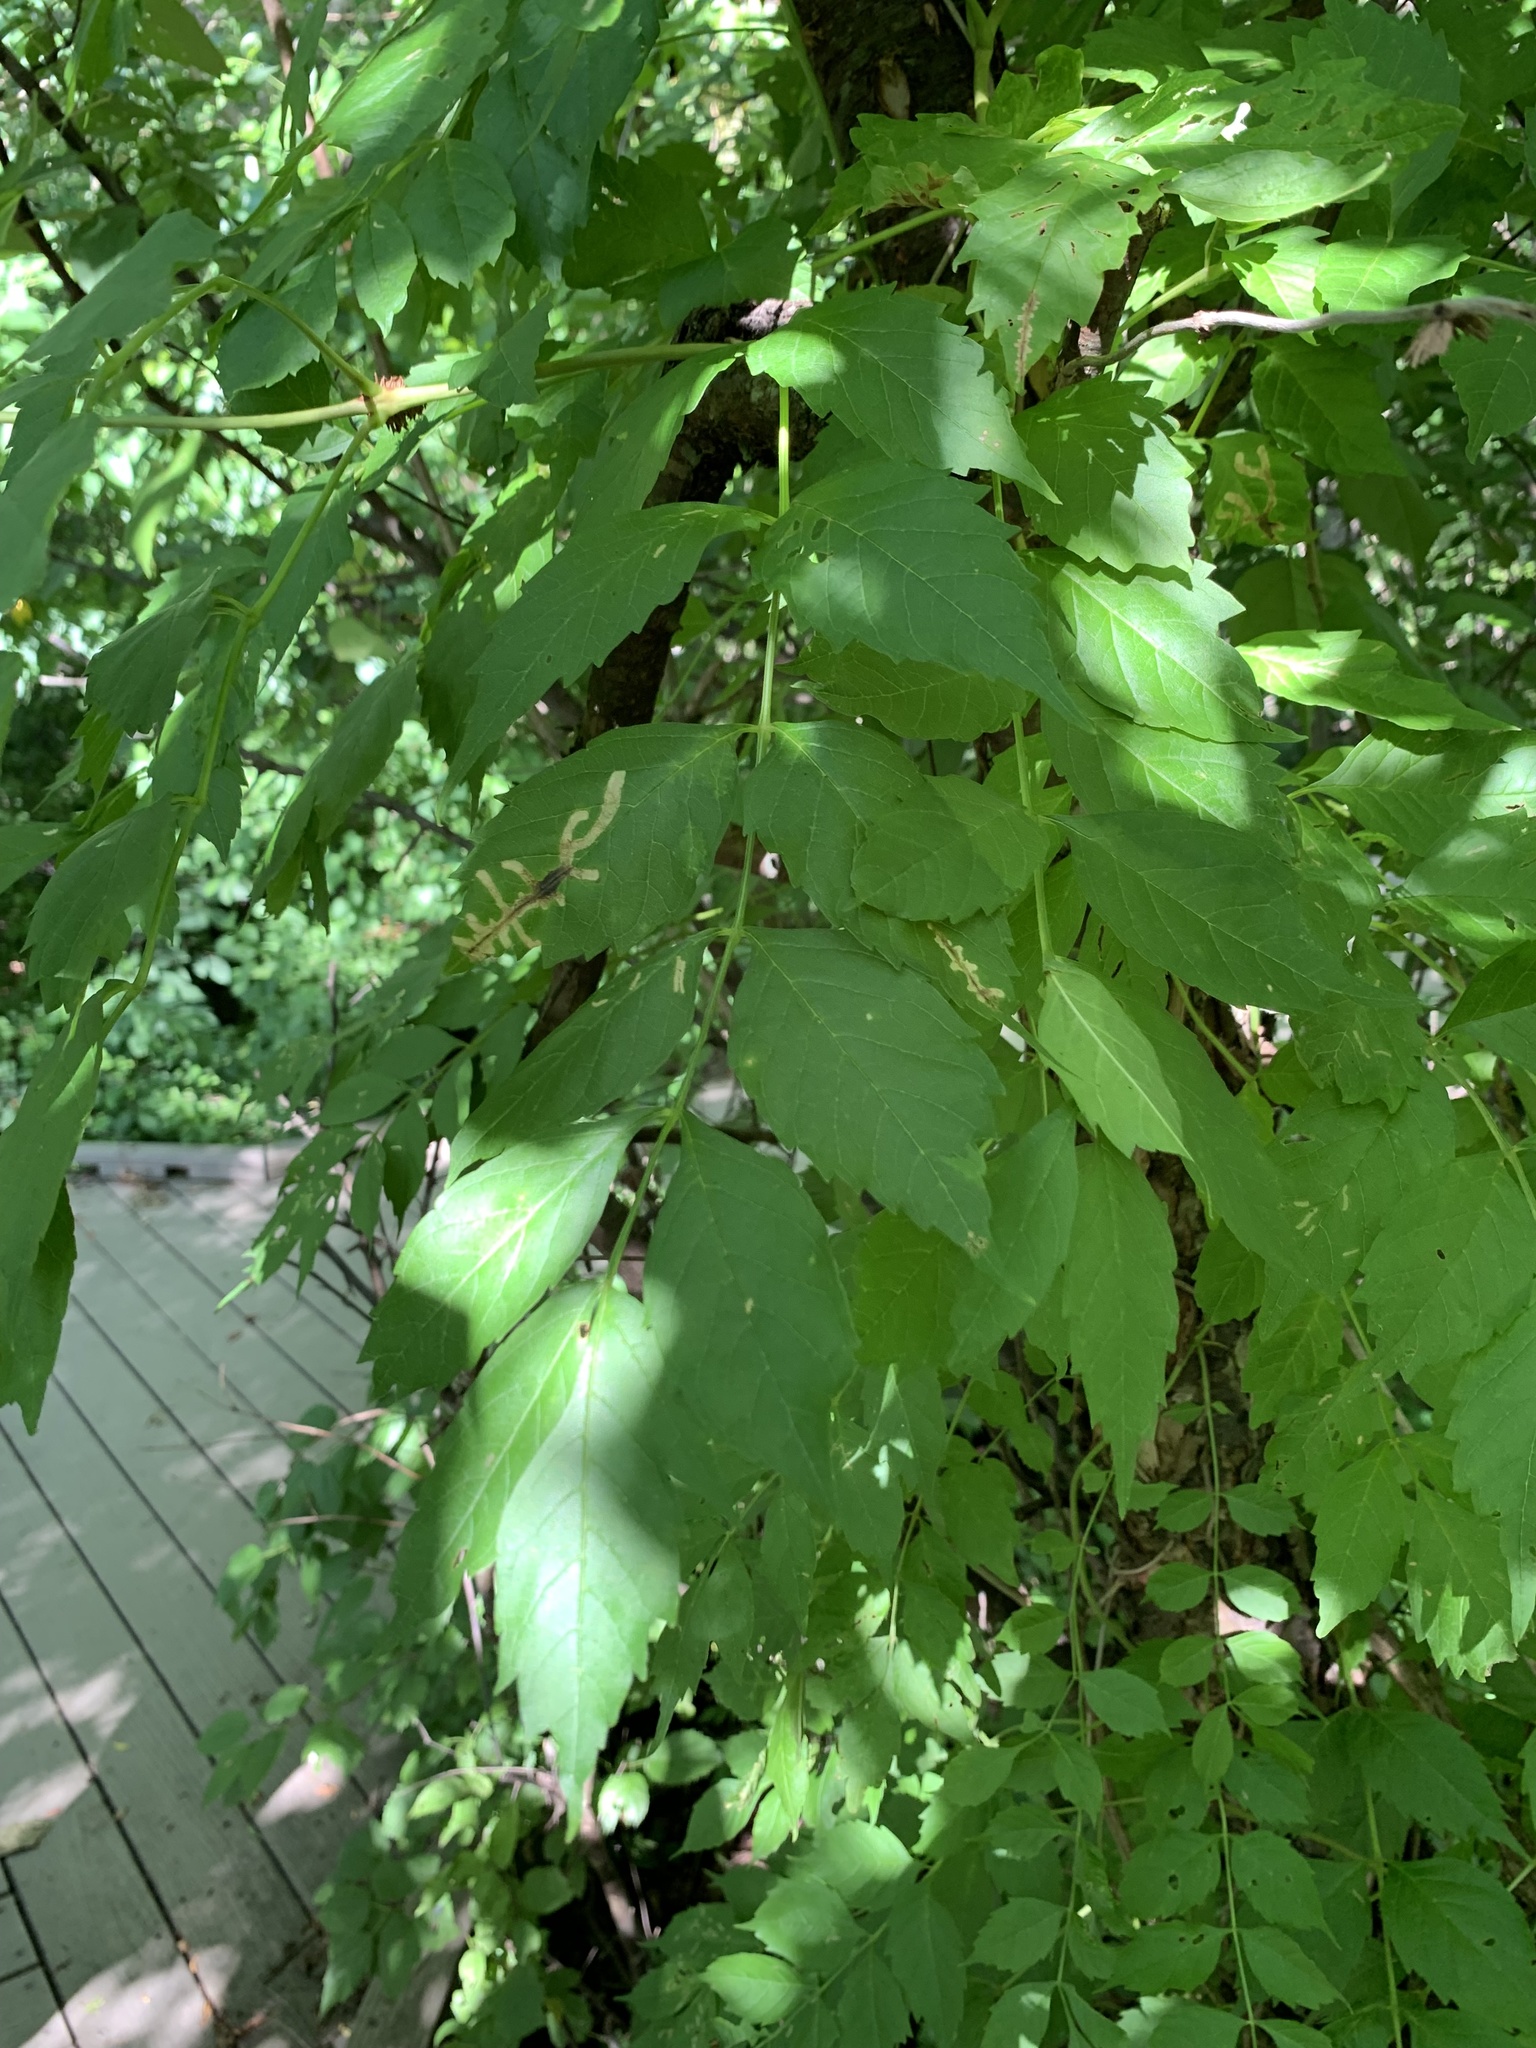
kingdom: Animalia
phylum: Arthropoda
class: Insecta
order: Coleoptera
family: Chrysomelidae
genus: Octotoma
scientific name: Octotoma plicatula
